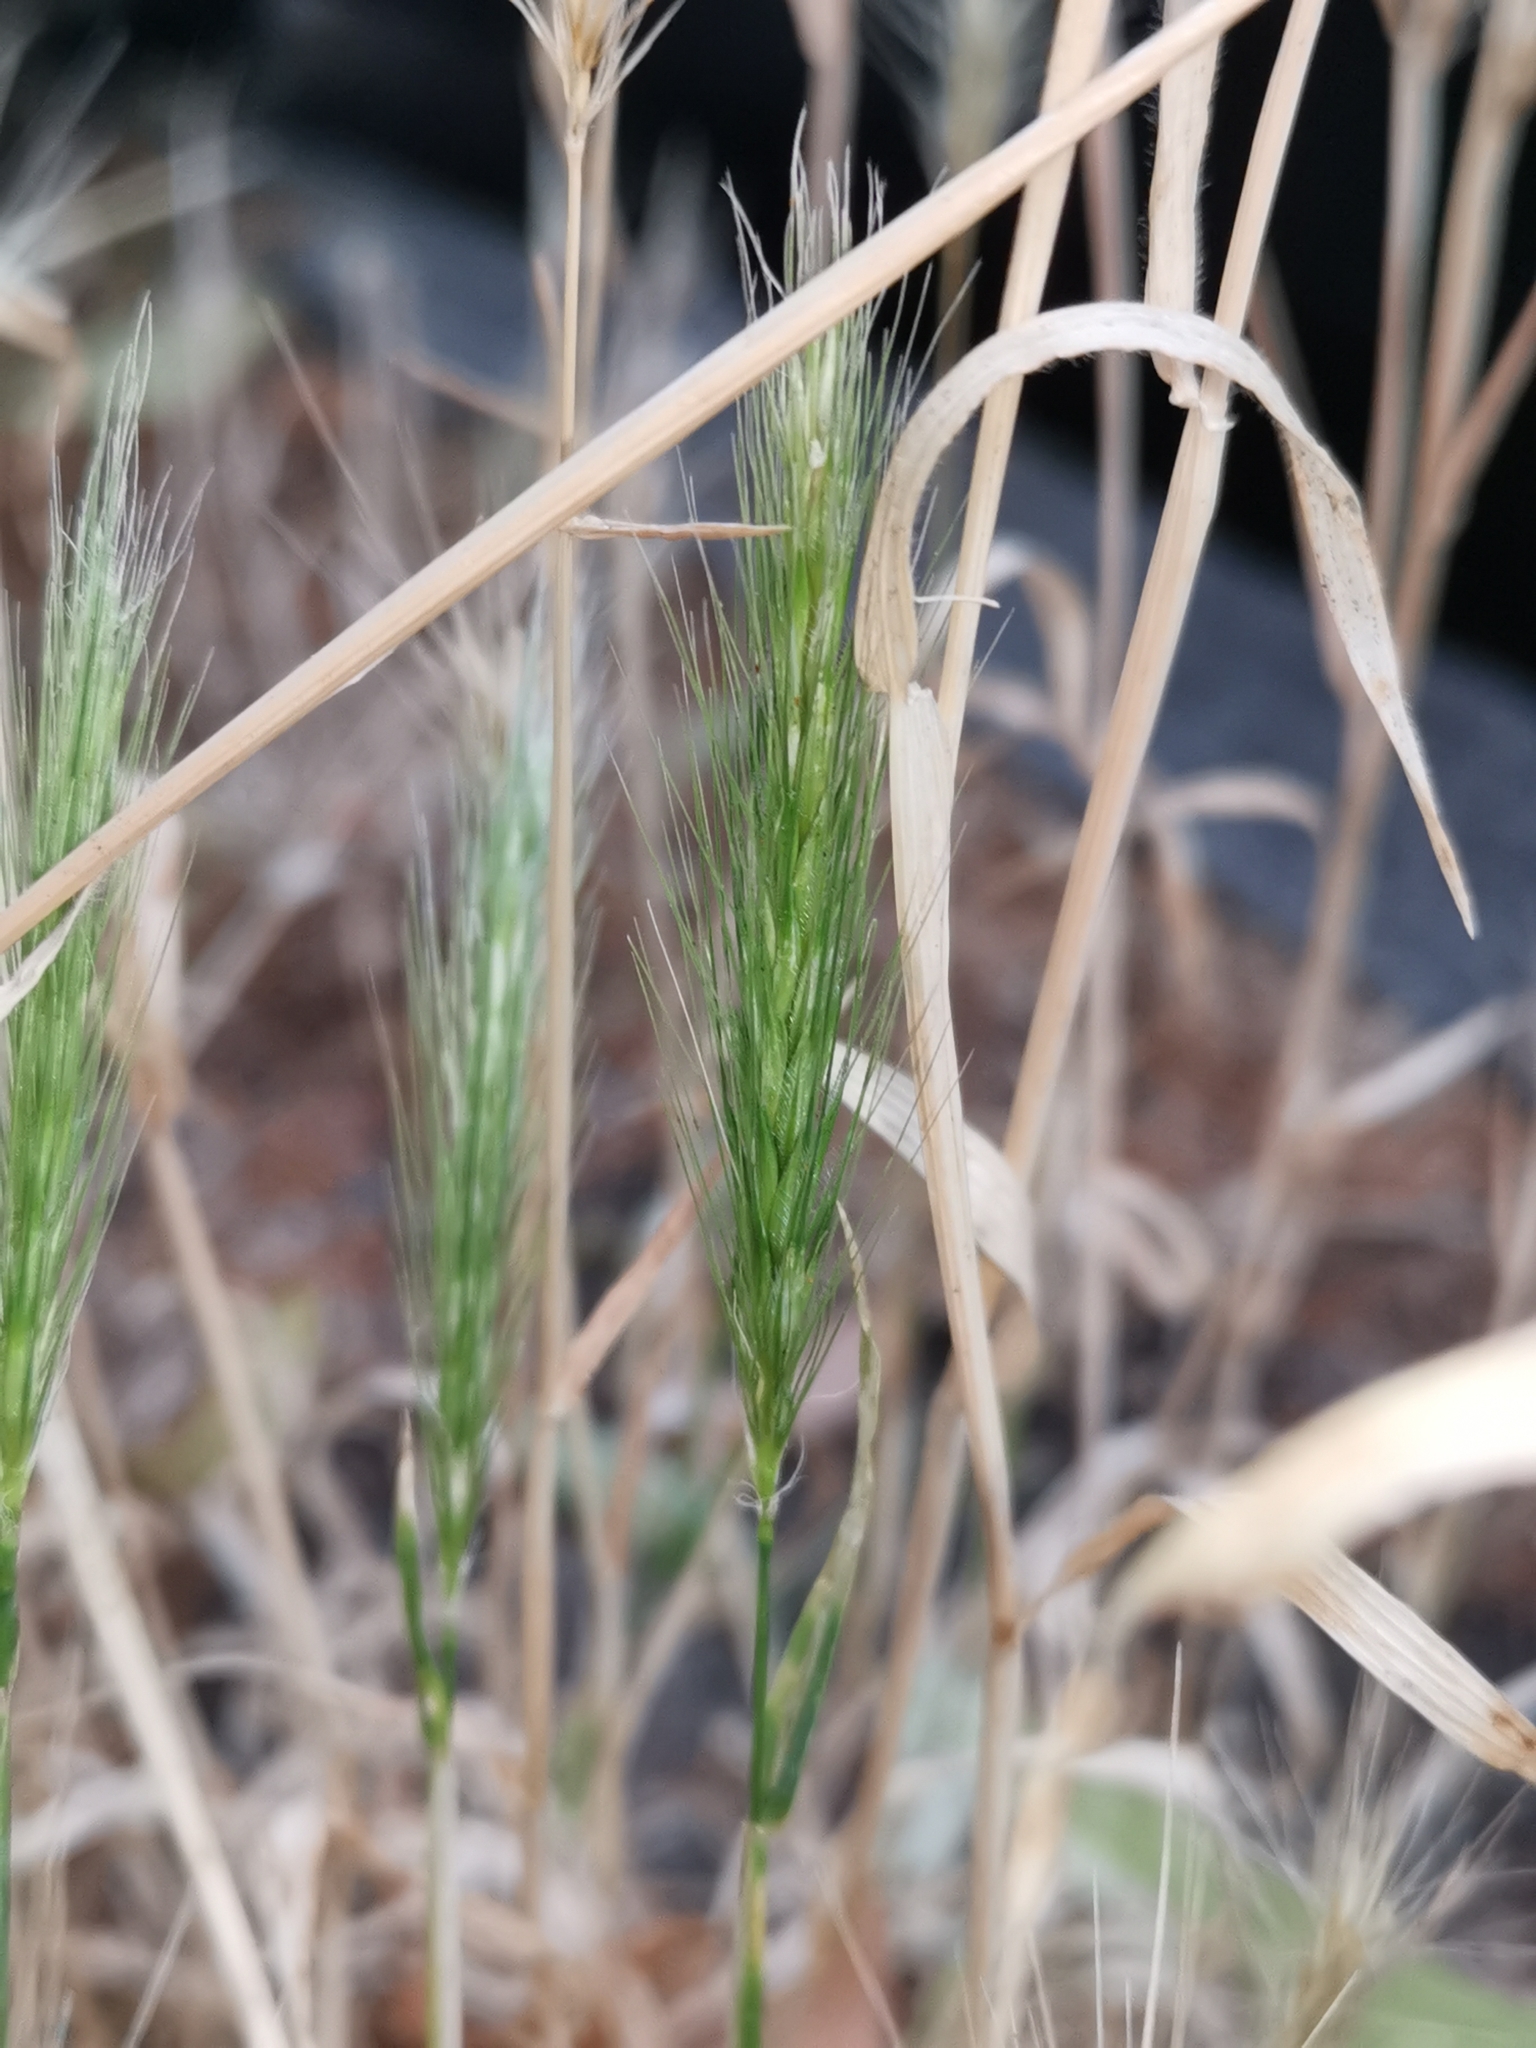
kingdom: Plantae
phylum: Tracheophyta
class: Liliopsida
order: Poales
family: Poaceae
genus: Hordeum
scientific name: Hordeum murinum
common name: Wall barley
